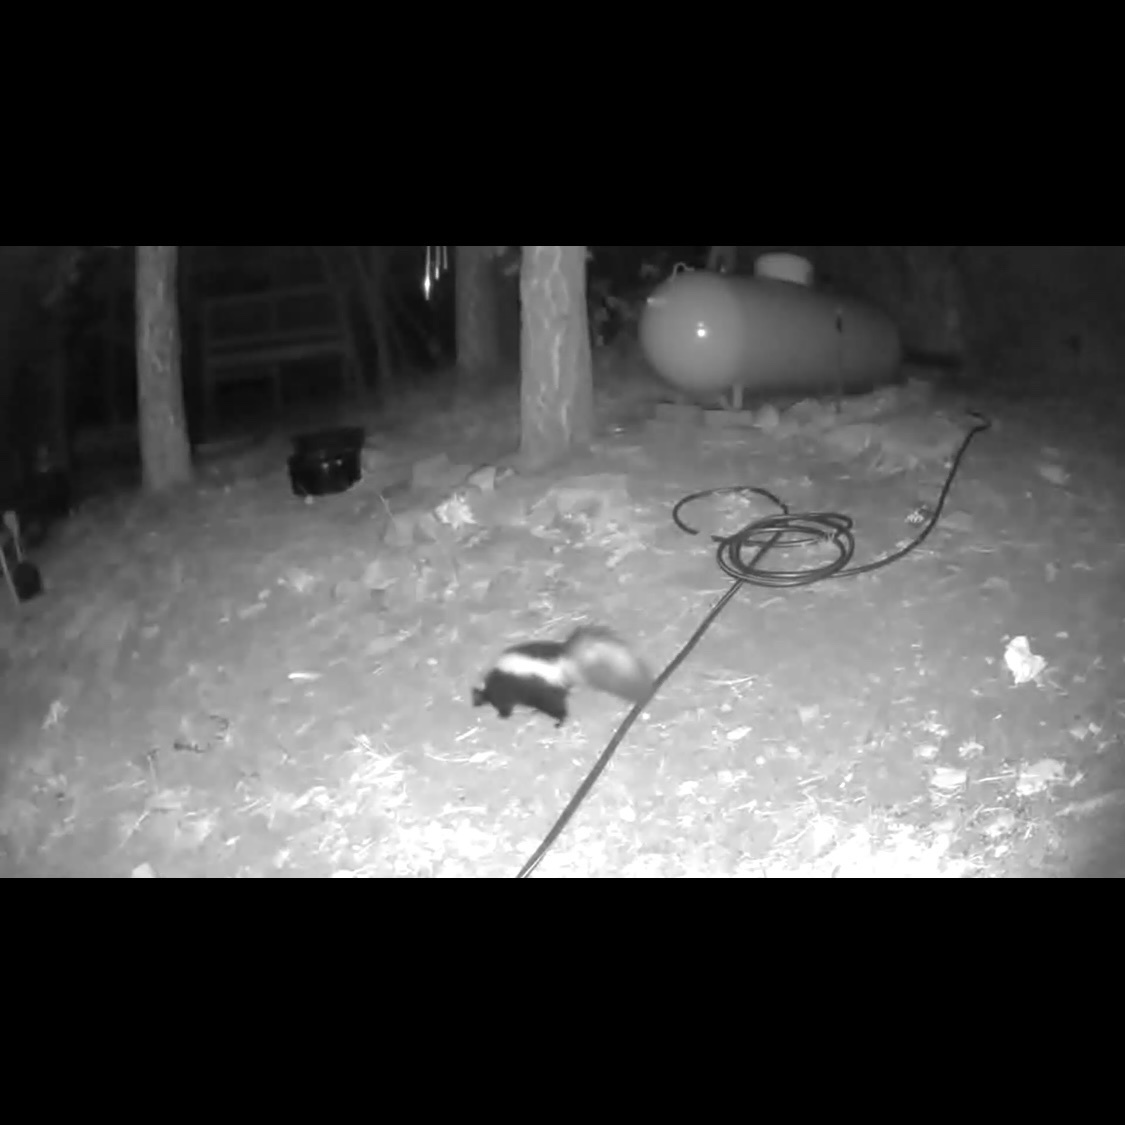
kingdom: Animalia
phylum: Chordata
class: Mammalia
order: Carnivora
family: Mephitidae
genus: Mephitis
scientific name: Mephitis mephitis
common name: Striped skunk
